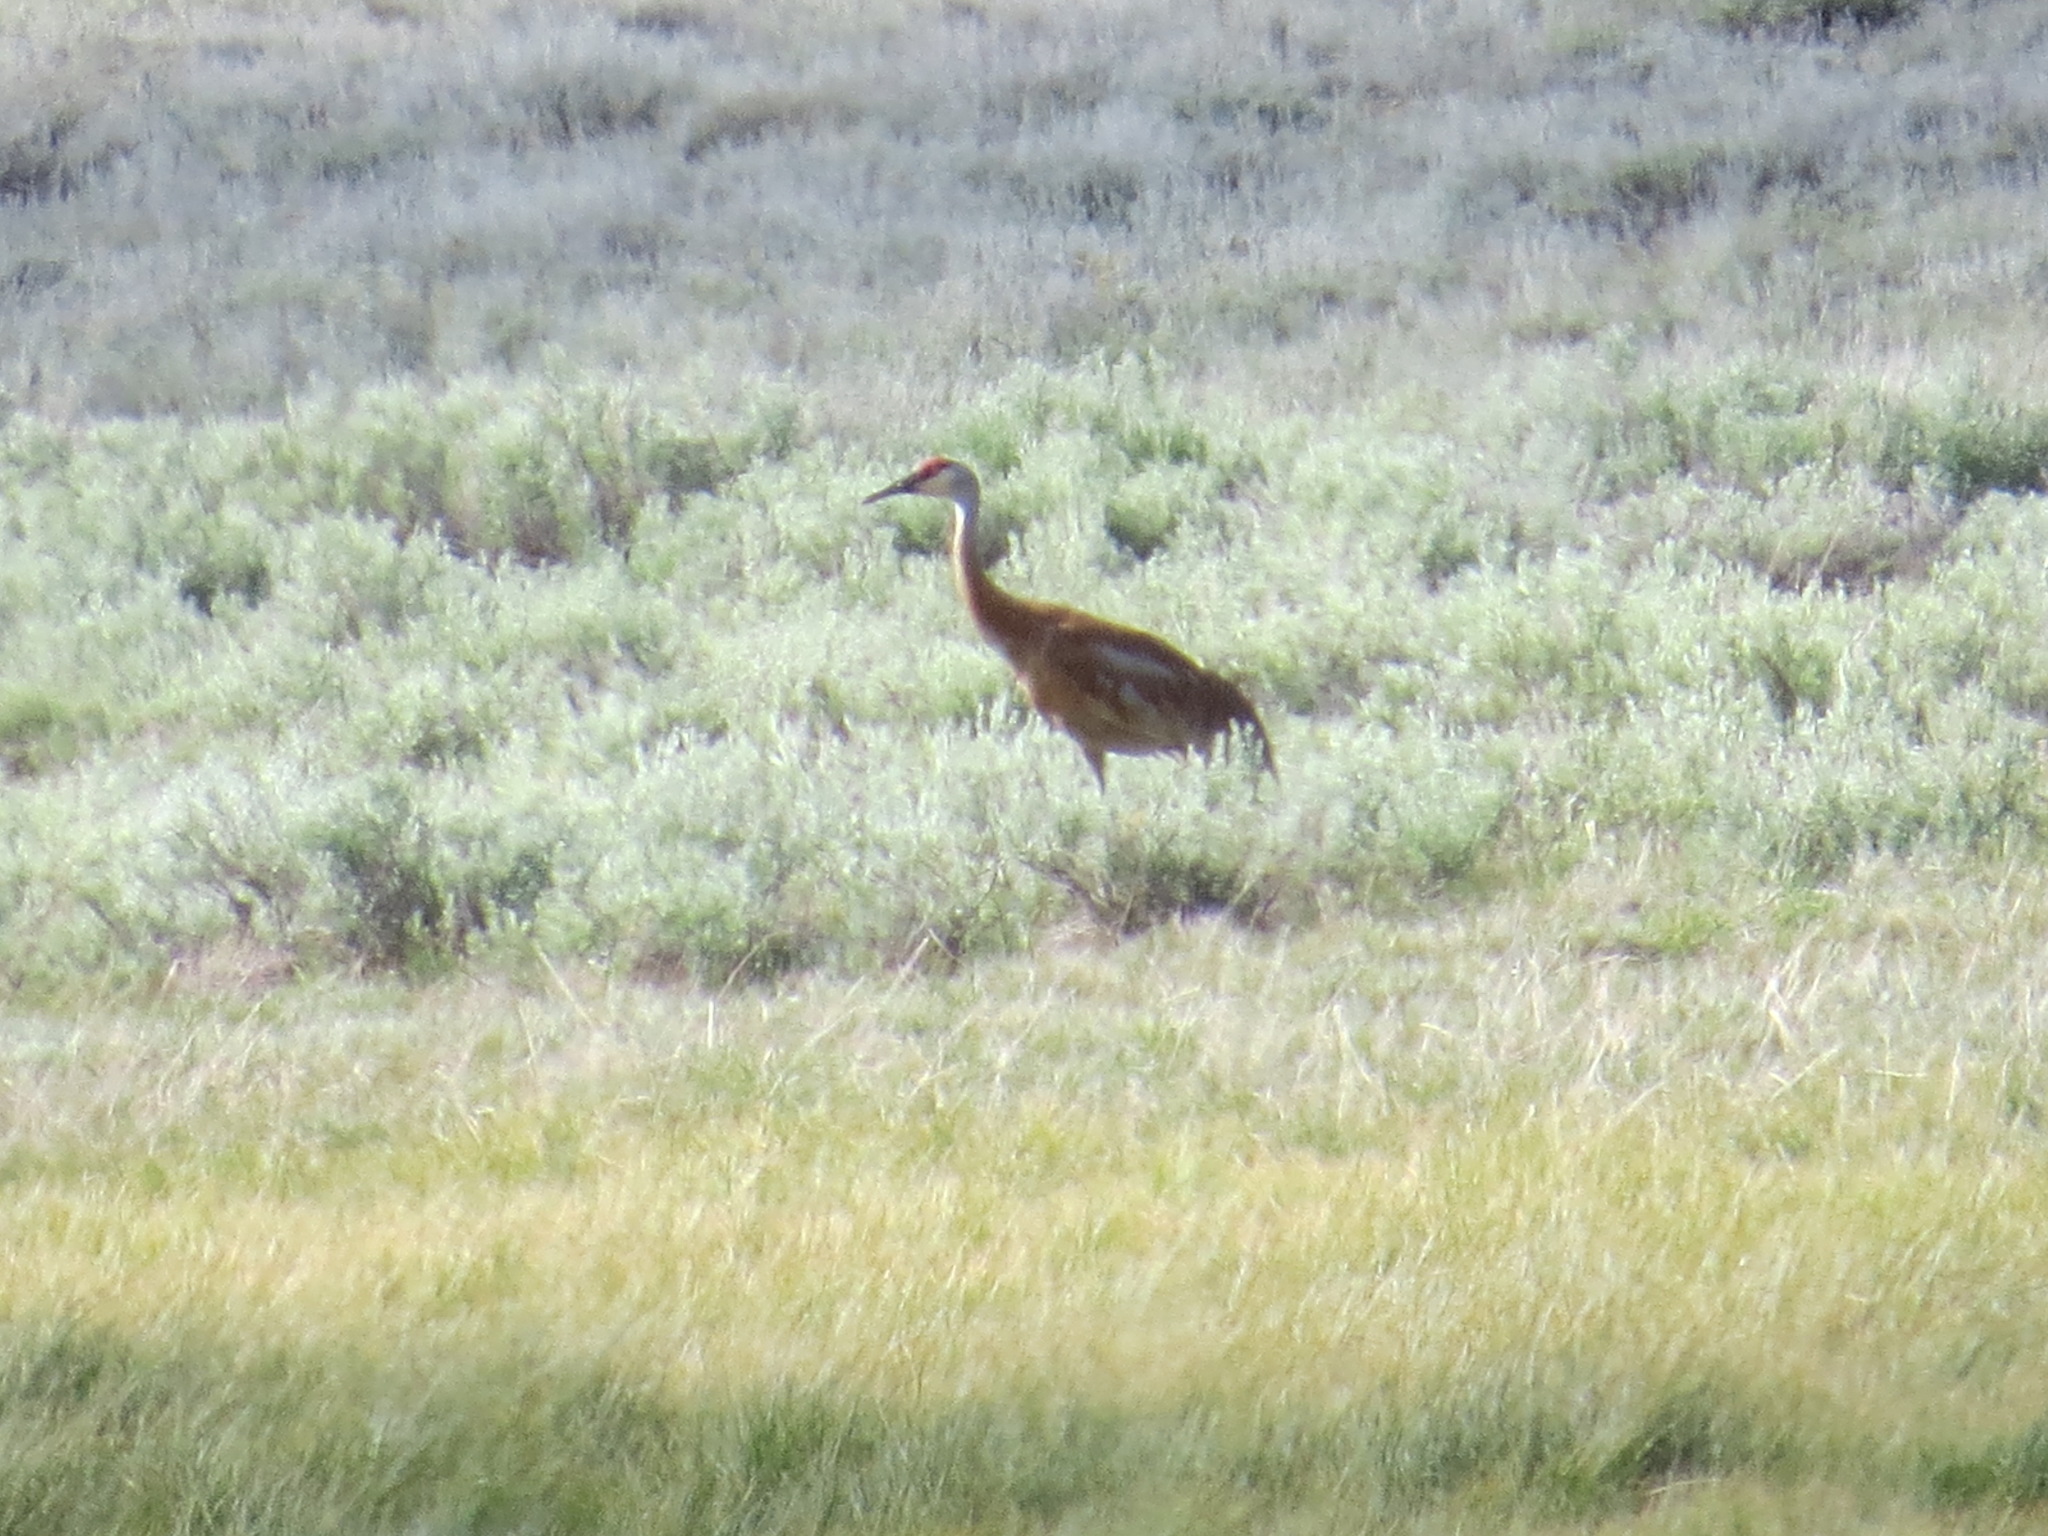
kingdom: Animalia
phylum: Chordata
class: Aves
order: Gruiformes
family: Gruidae
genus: Grus
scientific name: Grus canadensis
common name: Sandhill crane
